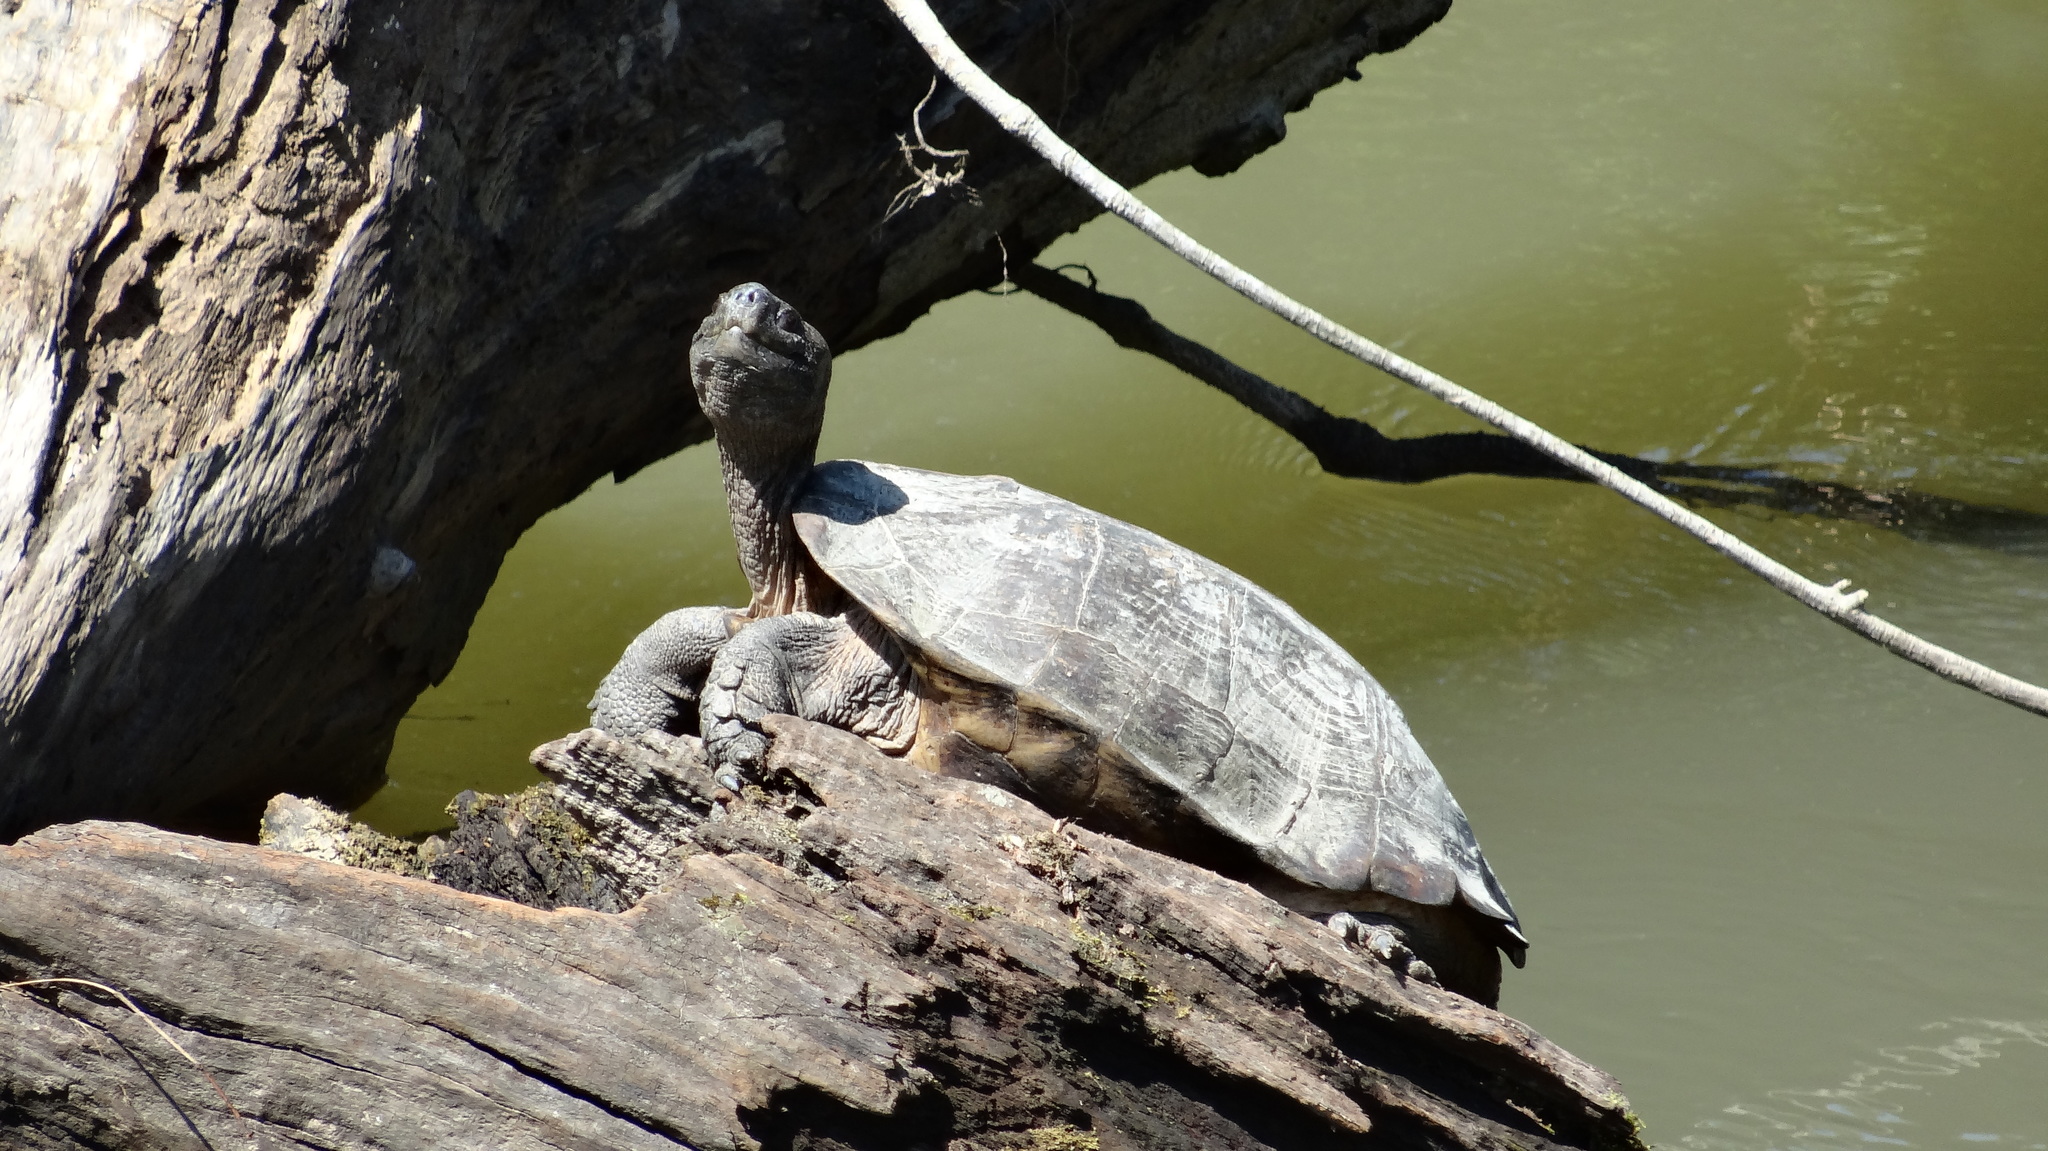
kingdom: Animalia
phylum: Chordata
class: Testudines
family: Emydidae
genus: Trachemys
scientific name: Trachemys scripta
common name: Slider
